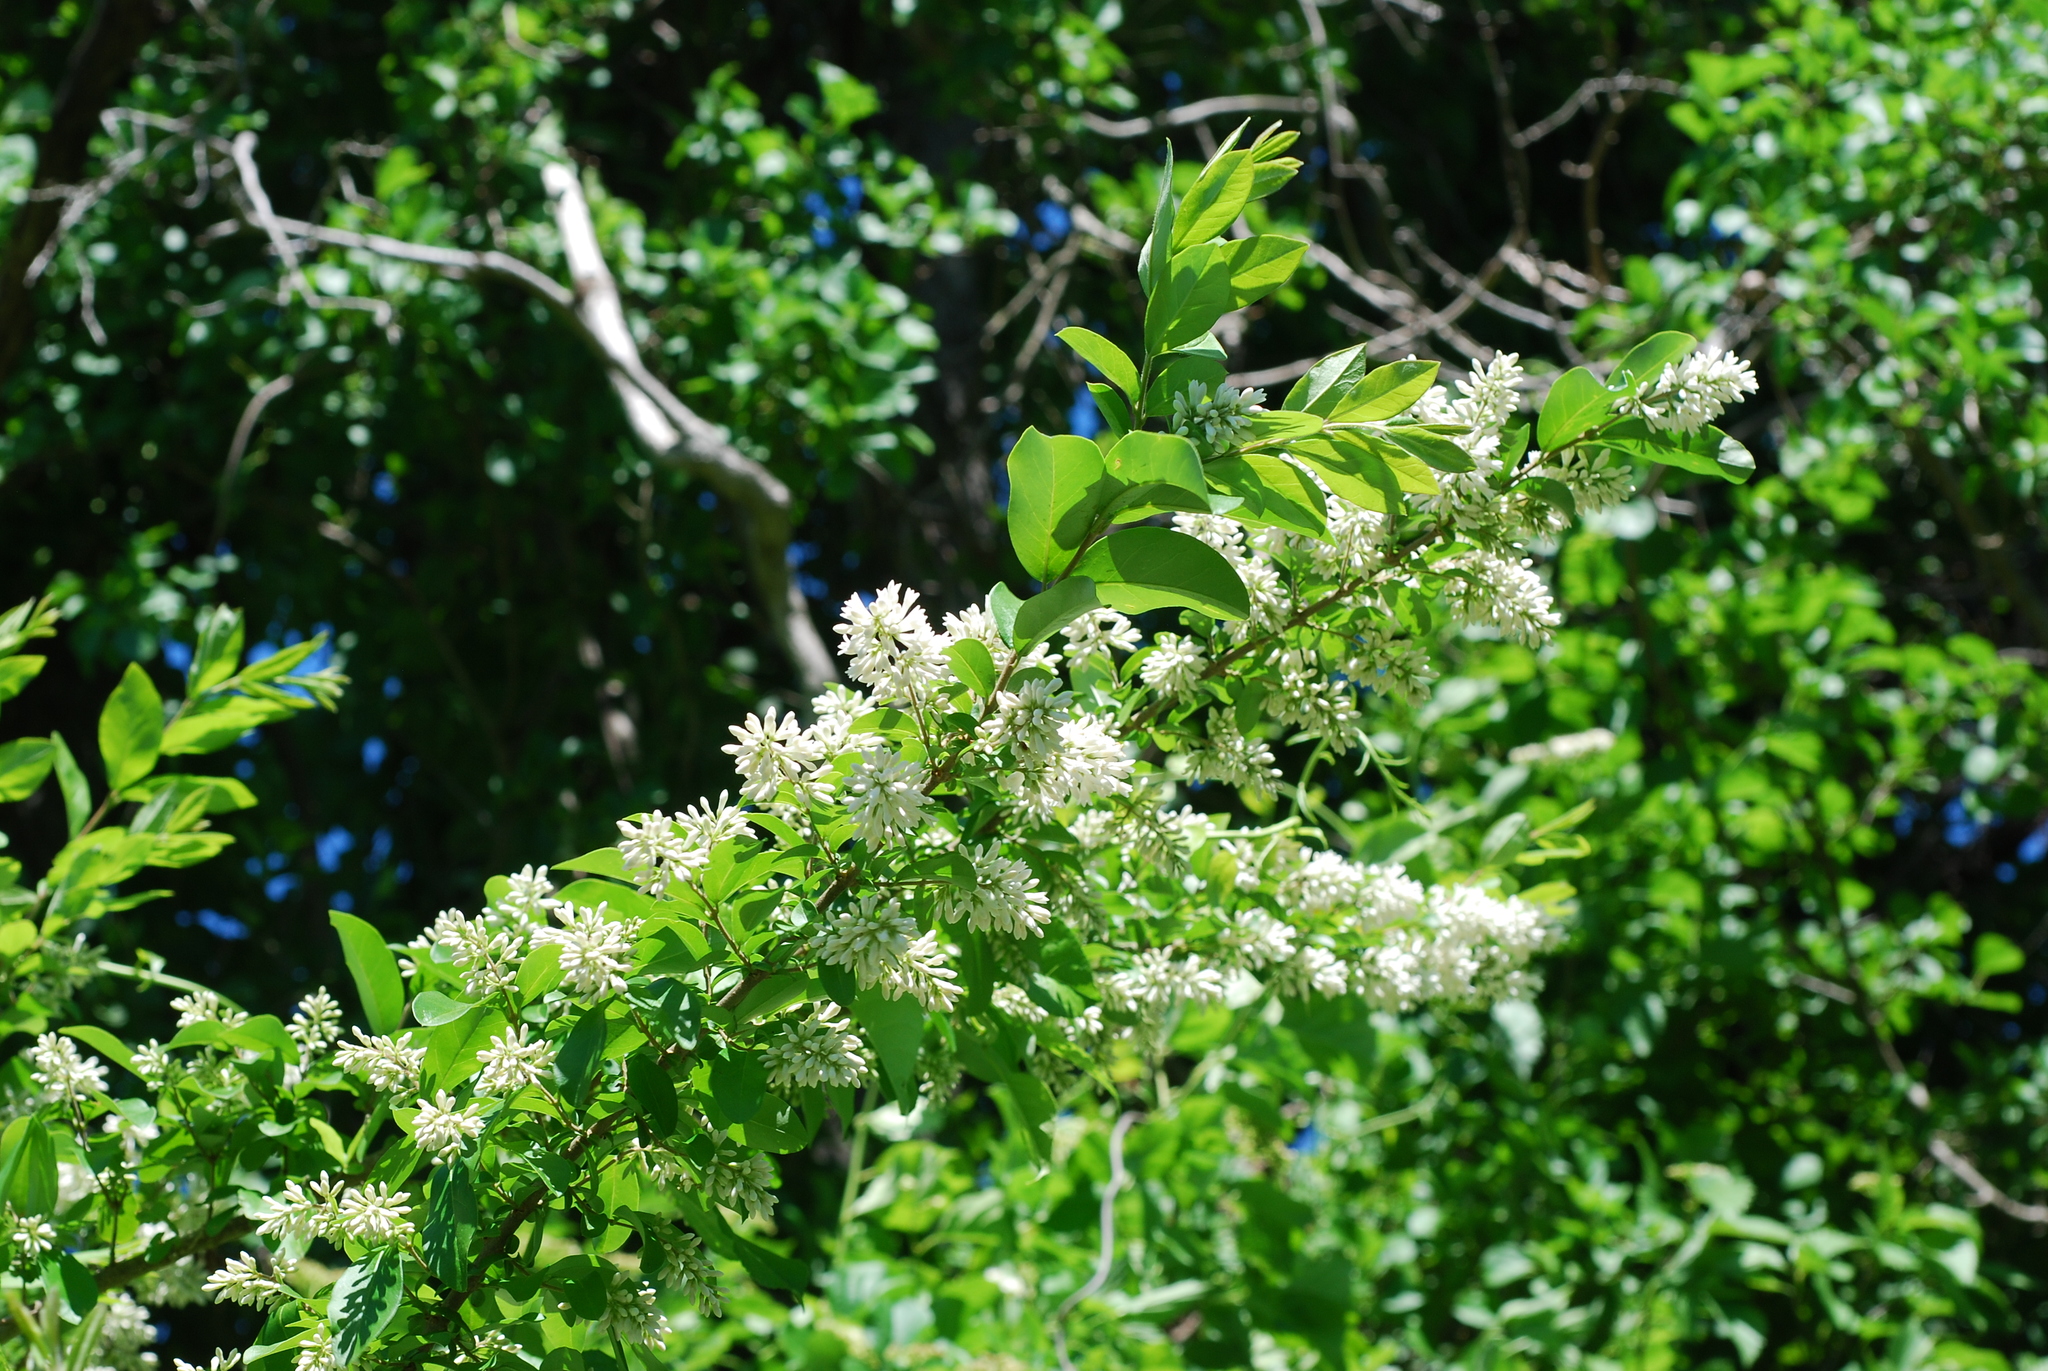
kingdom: Plantae
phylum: Tracheophyta
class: Magnoliopsida
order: Lamiales
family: Oleaceae
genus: Ligustrum
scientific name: Ligustrum obtusifolium
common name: Border privet
